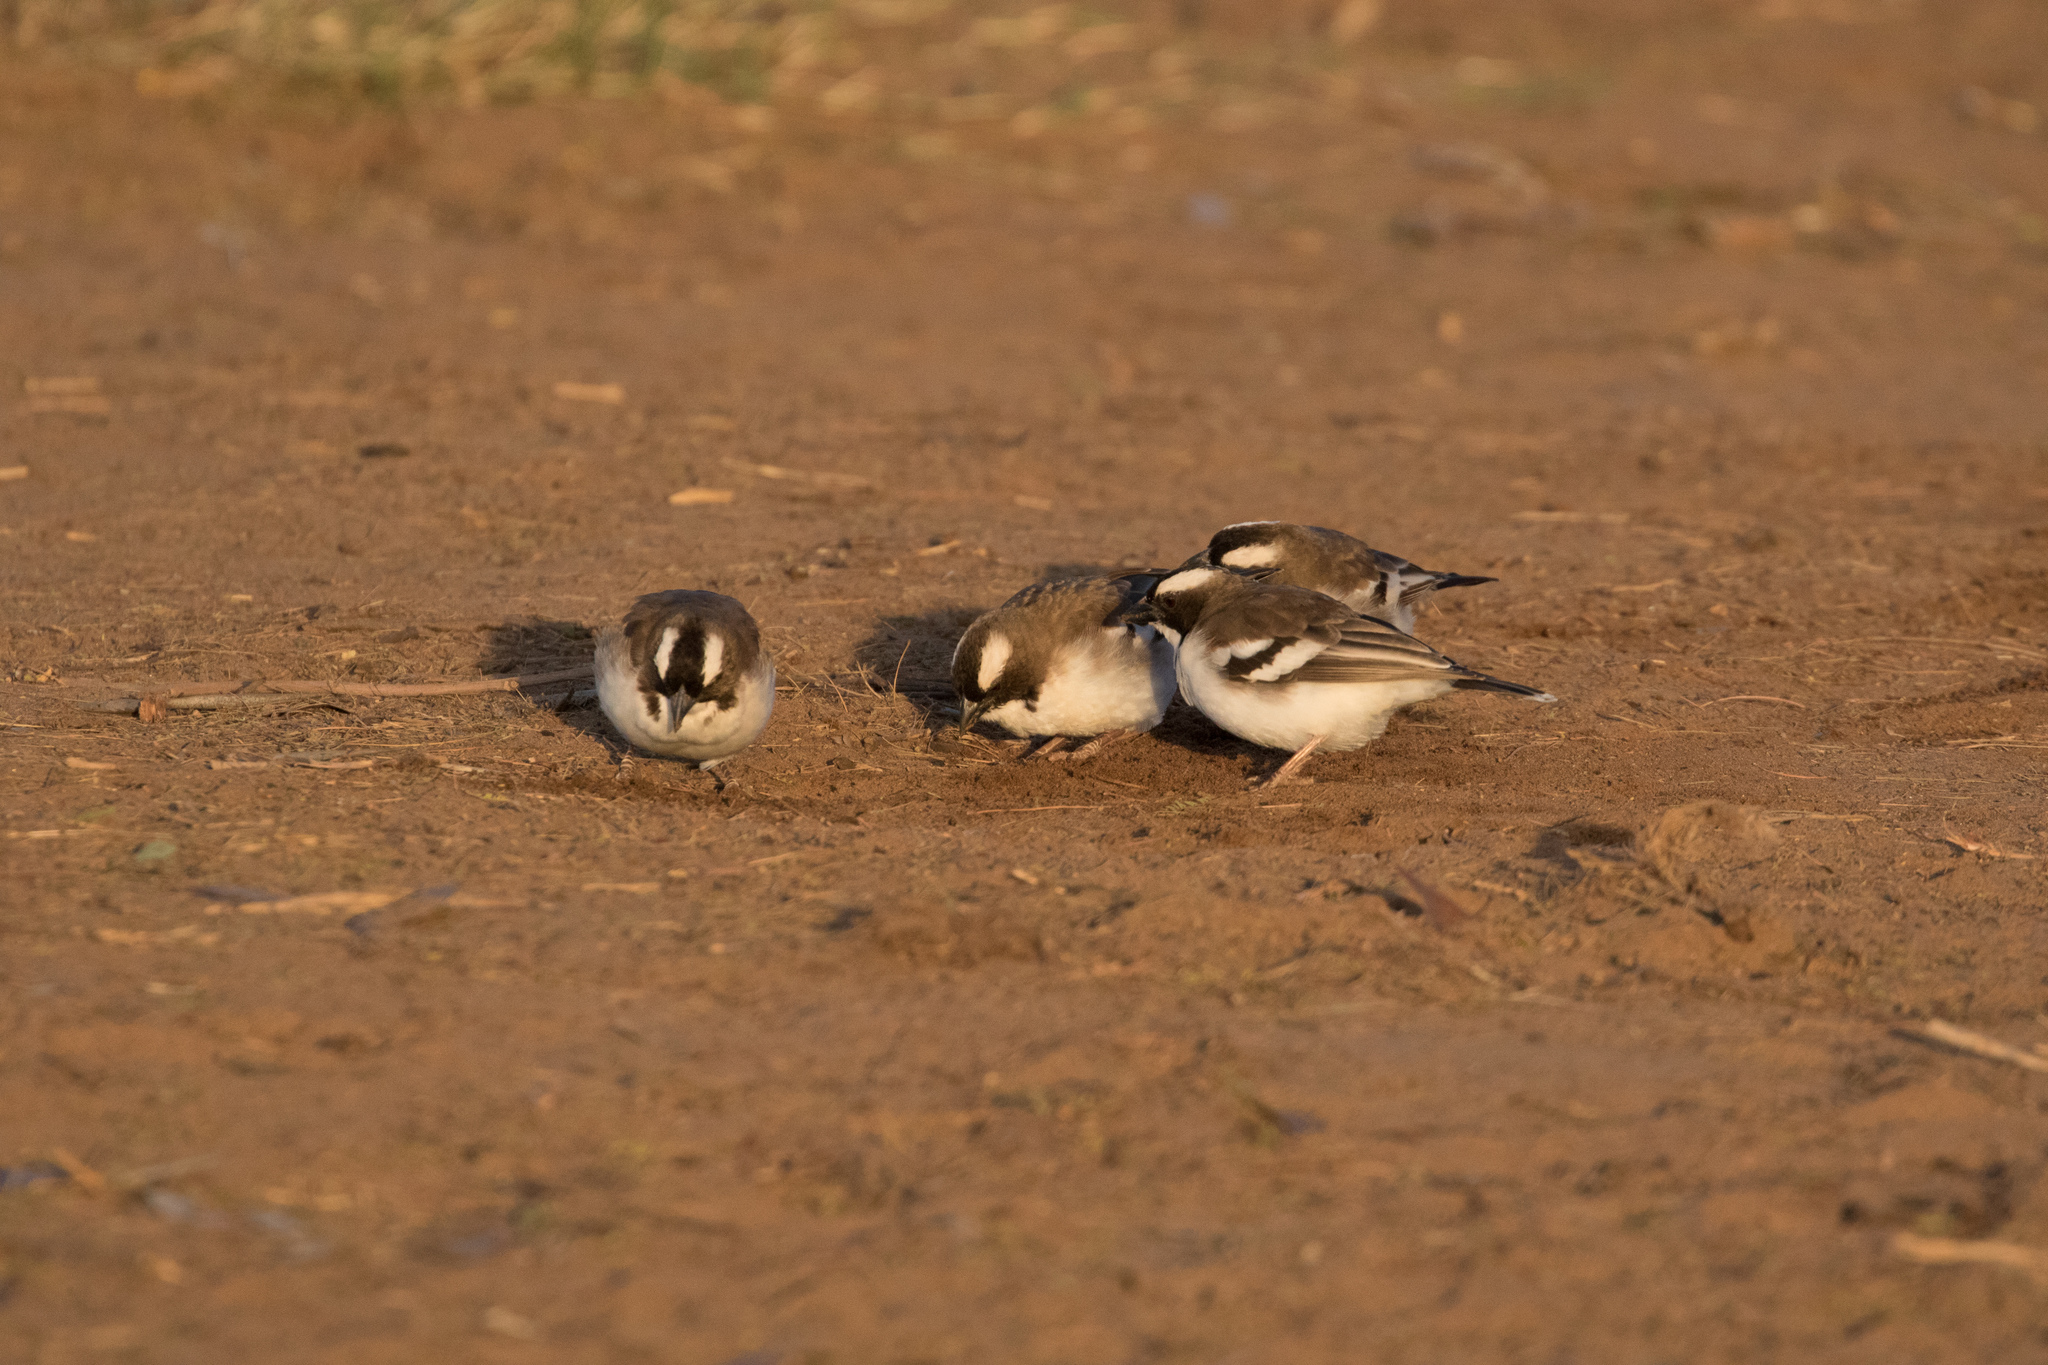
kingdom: Animalia
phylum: Chordata
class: Aves
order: Passeriformes
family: Passeridae
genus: Plocepasser
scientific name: Plocepasser mahali
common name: White-browed sparrow-weaver
